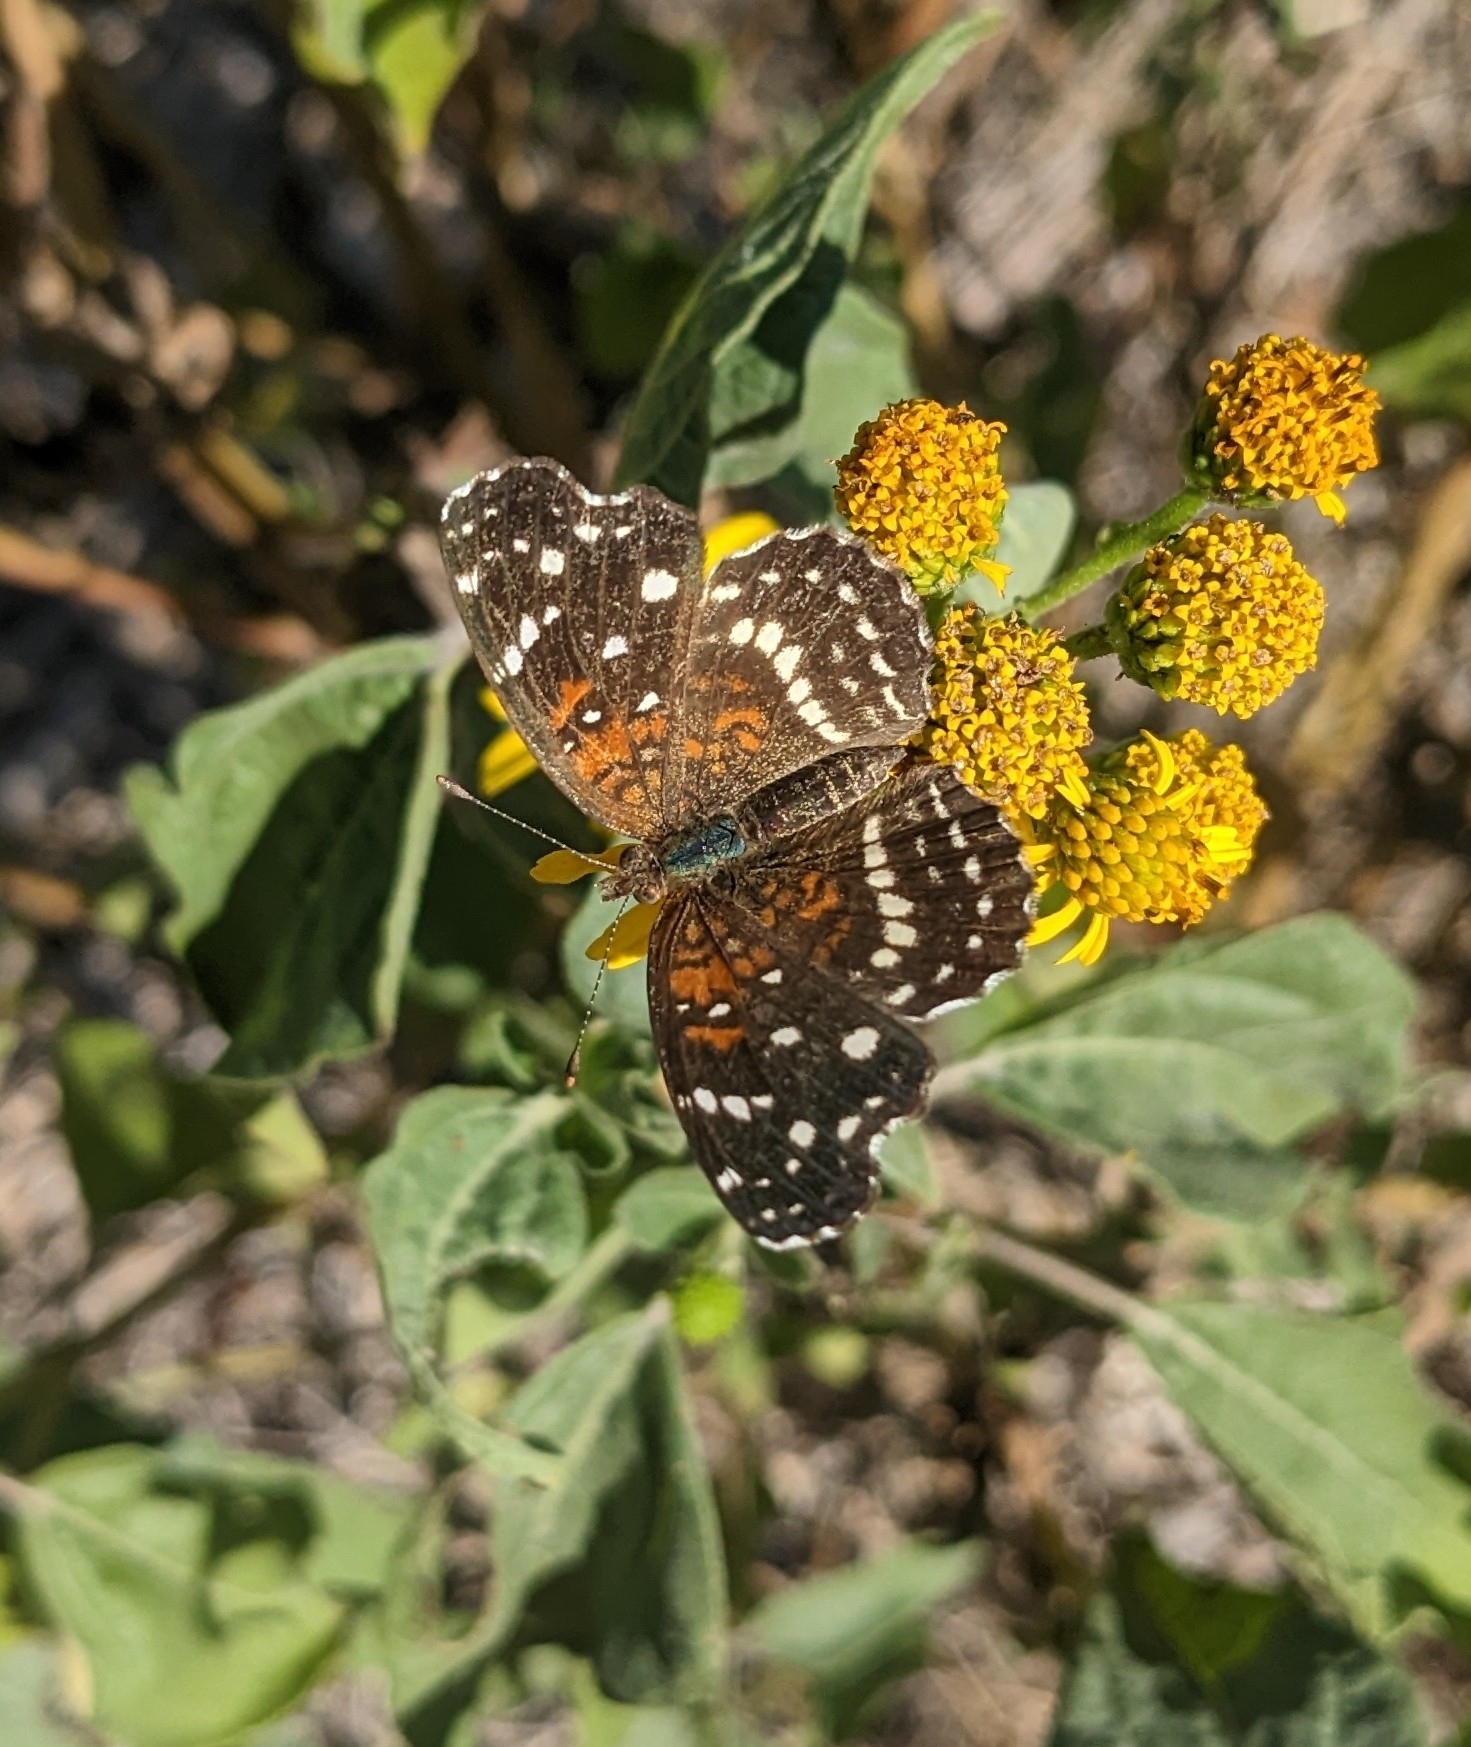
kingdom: Animalia
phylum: Arthropoda
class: Insecta
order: Lepidoptera
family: Nymphalidae
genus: Anthanassa
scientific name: Anthanassa texana
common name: Texan crescent
